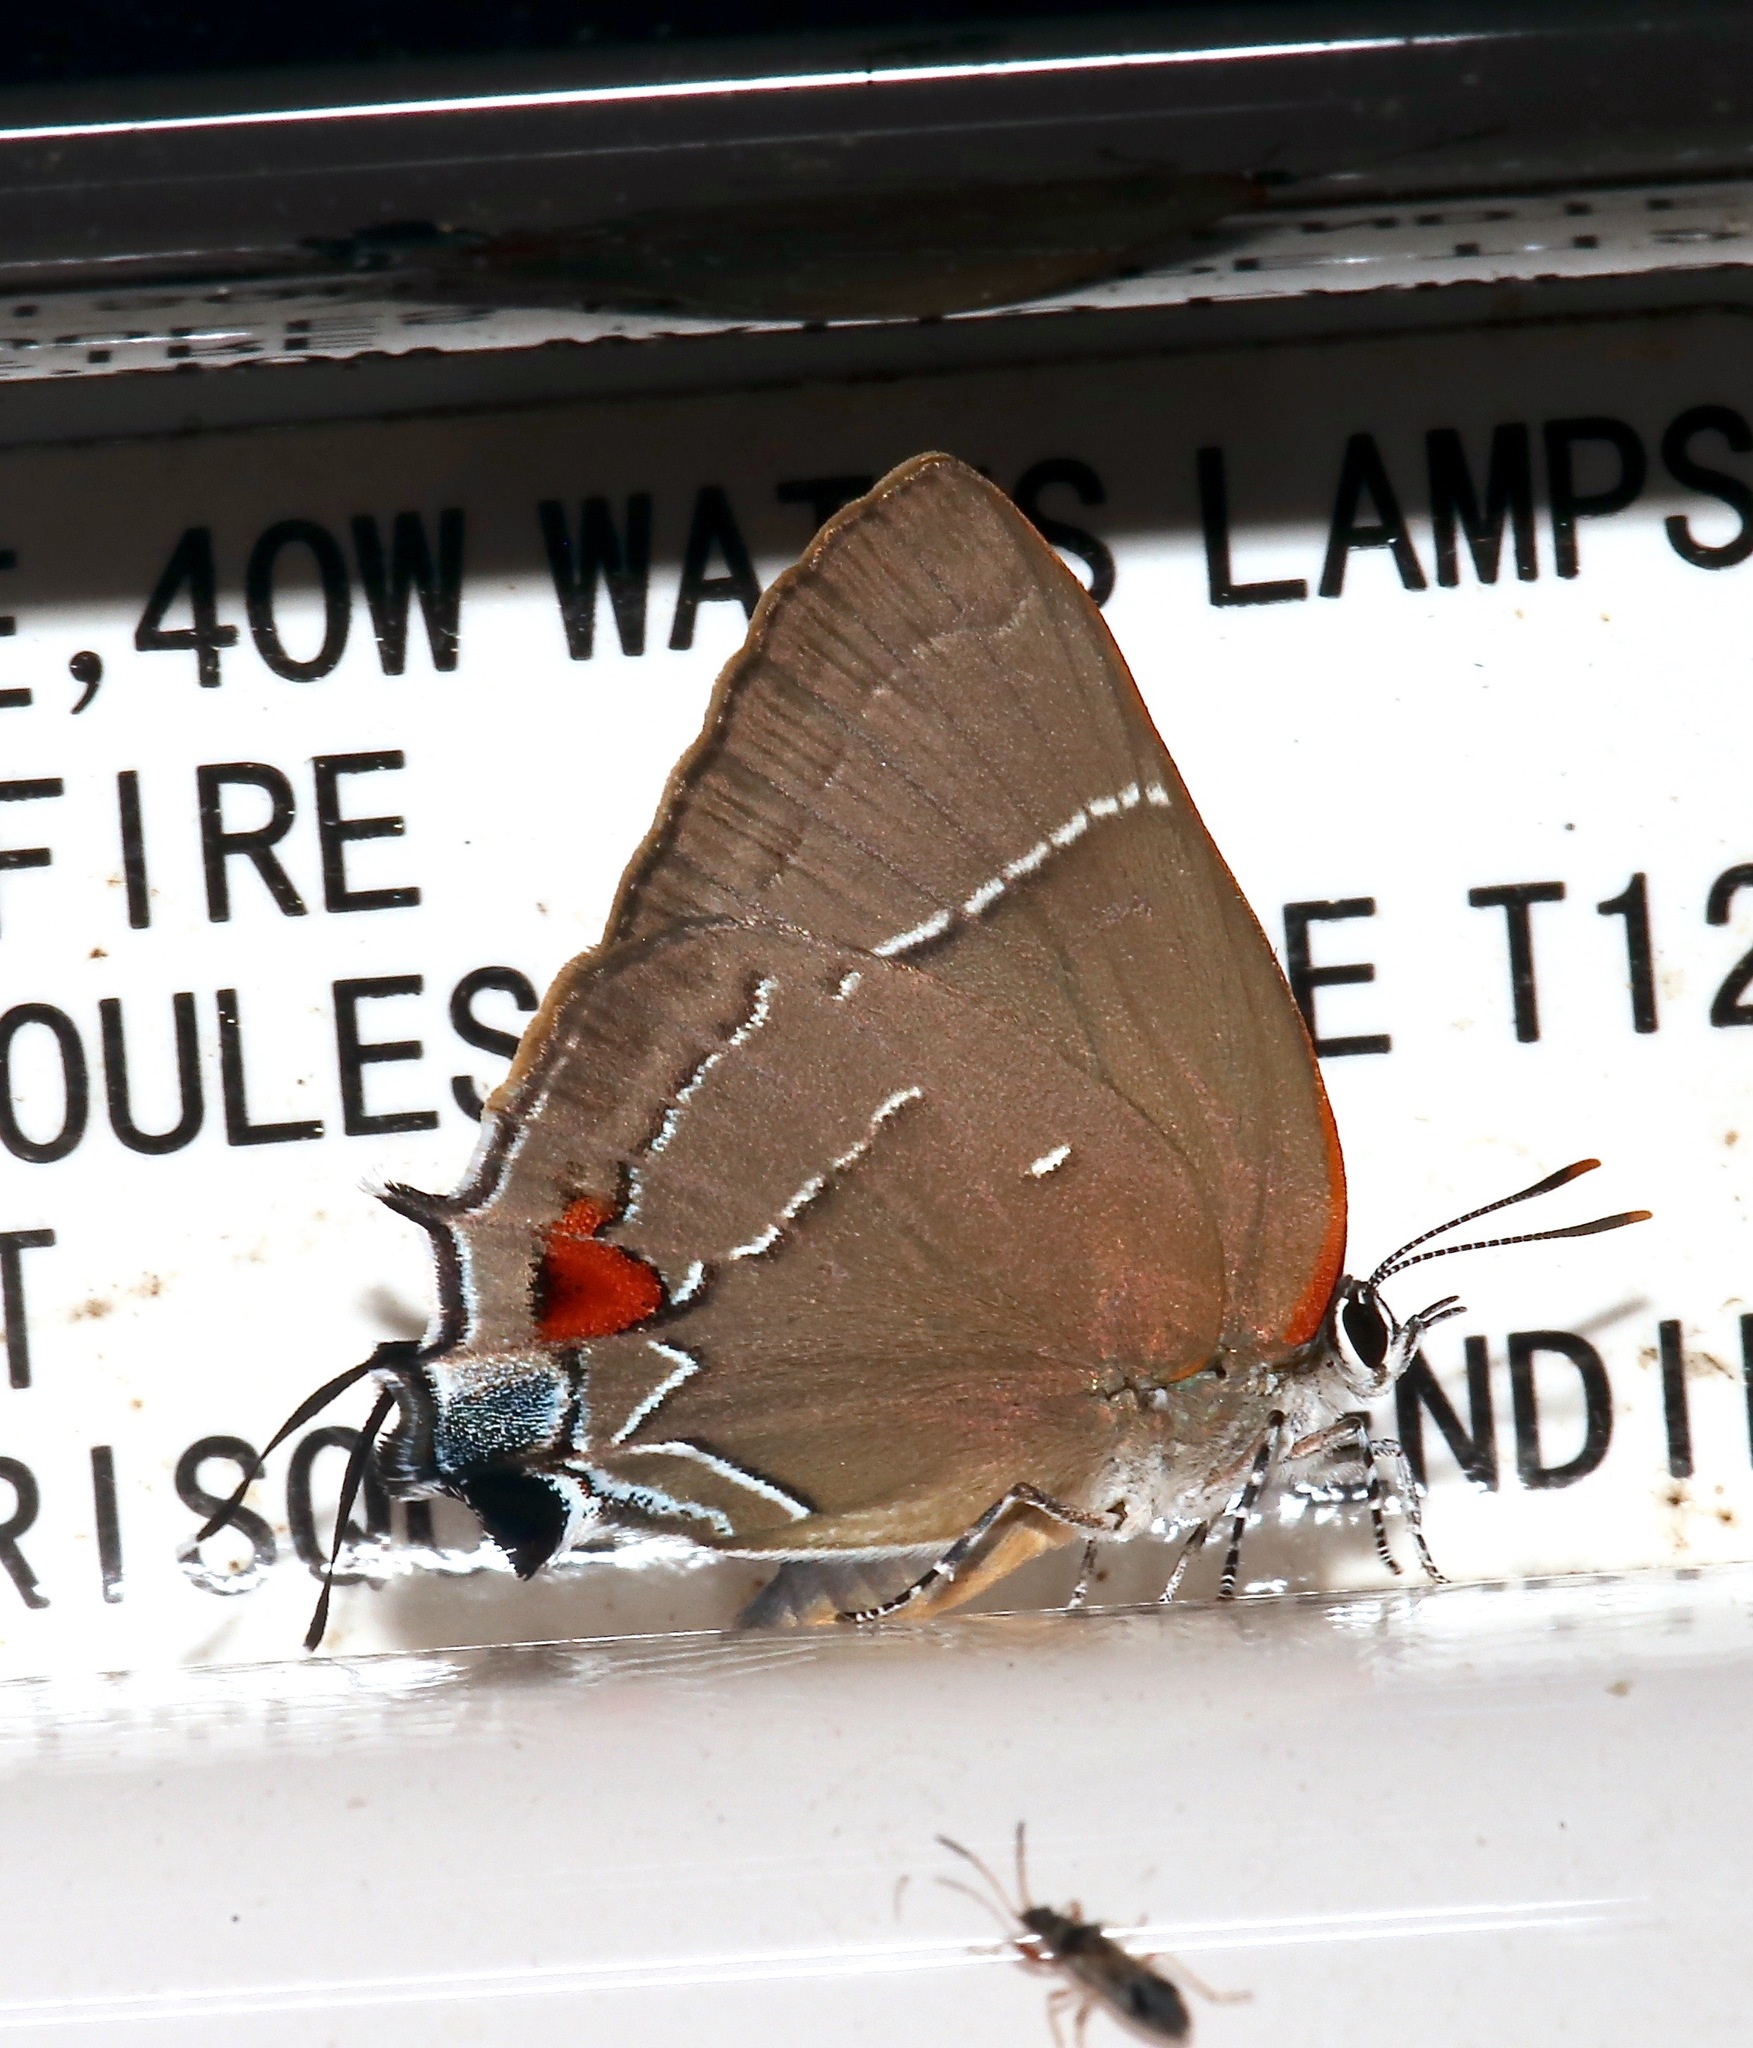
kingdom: Animalia
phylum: Arthropoda
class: Insecta
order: Lepidoptera
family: Lycaenidae
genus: Parrhasius
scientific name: Parrhasius m-album
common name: White m hairstreak
